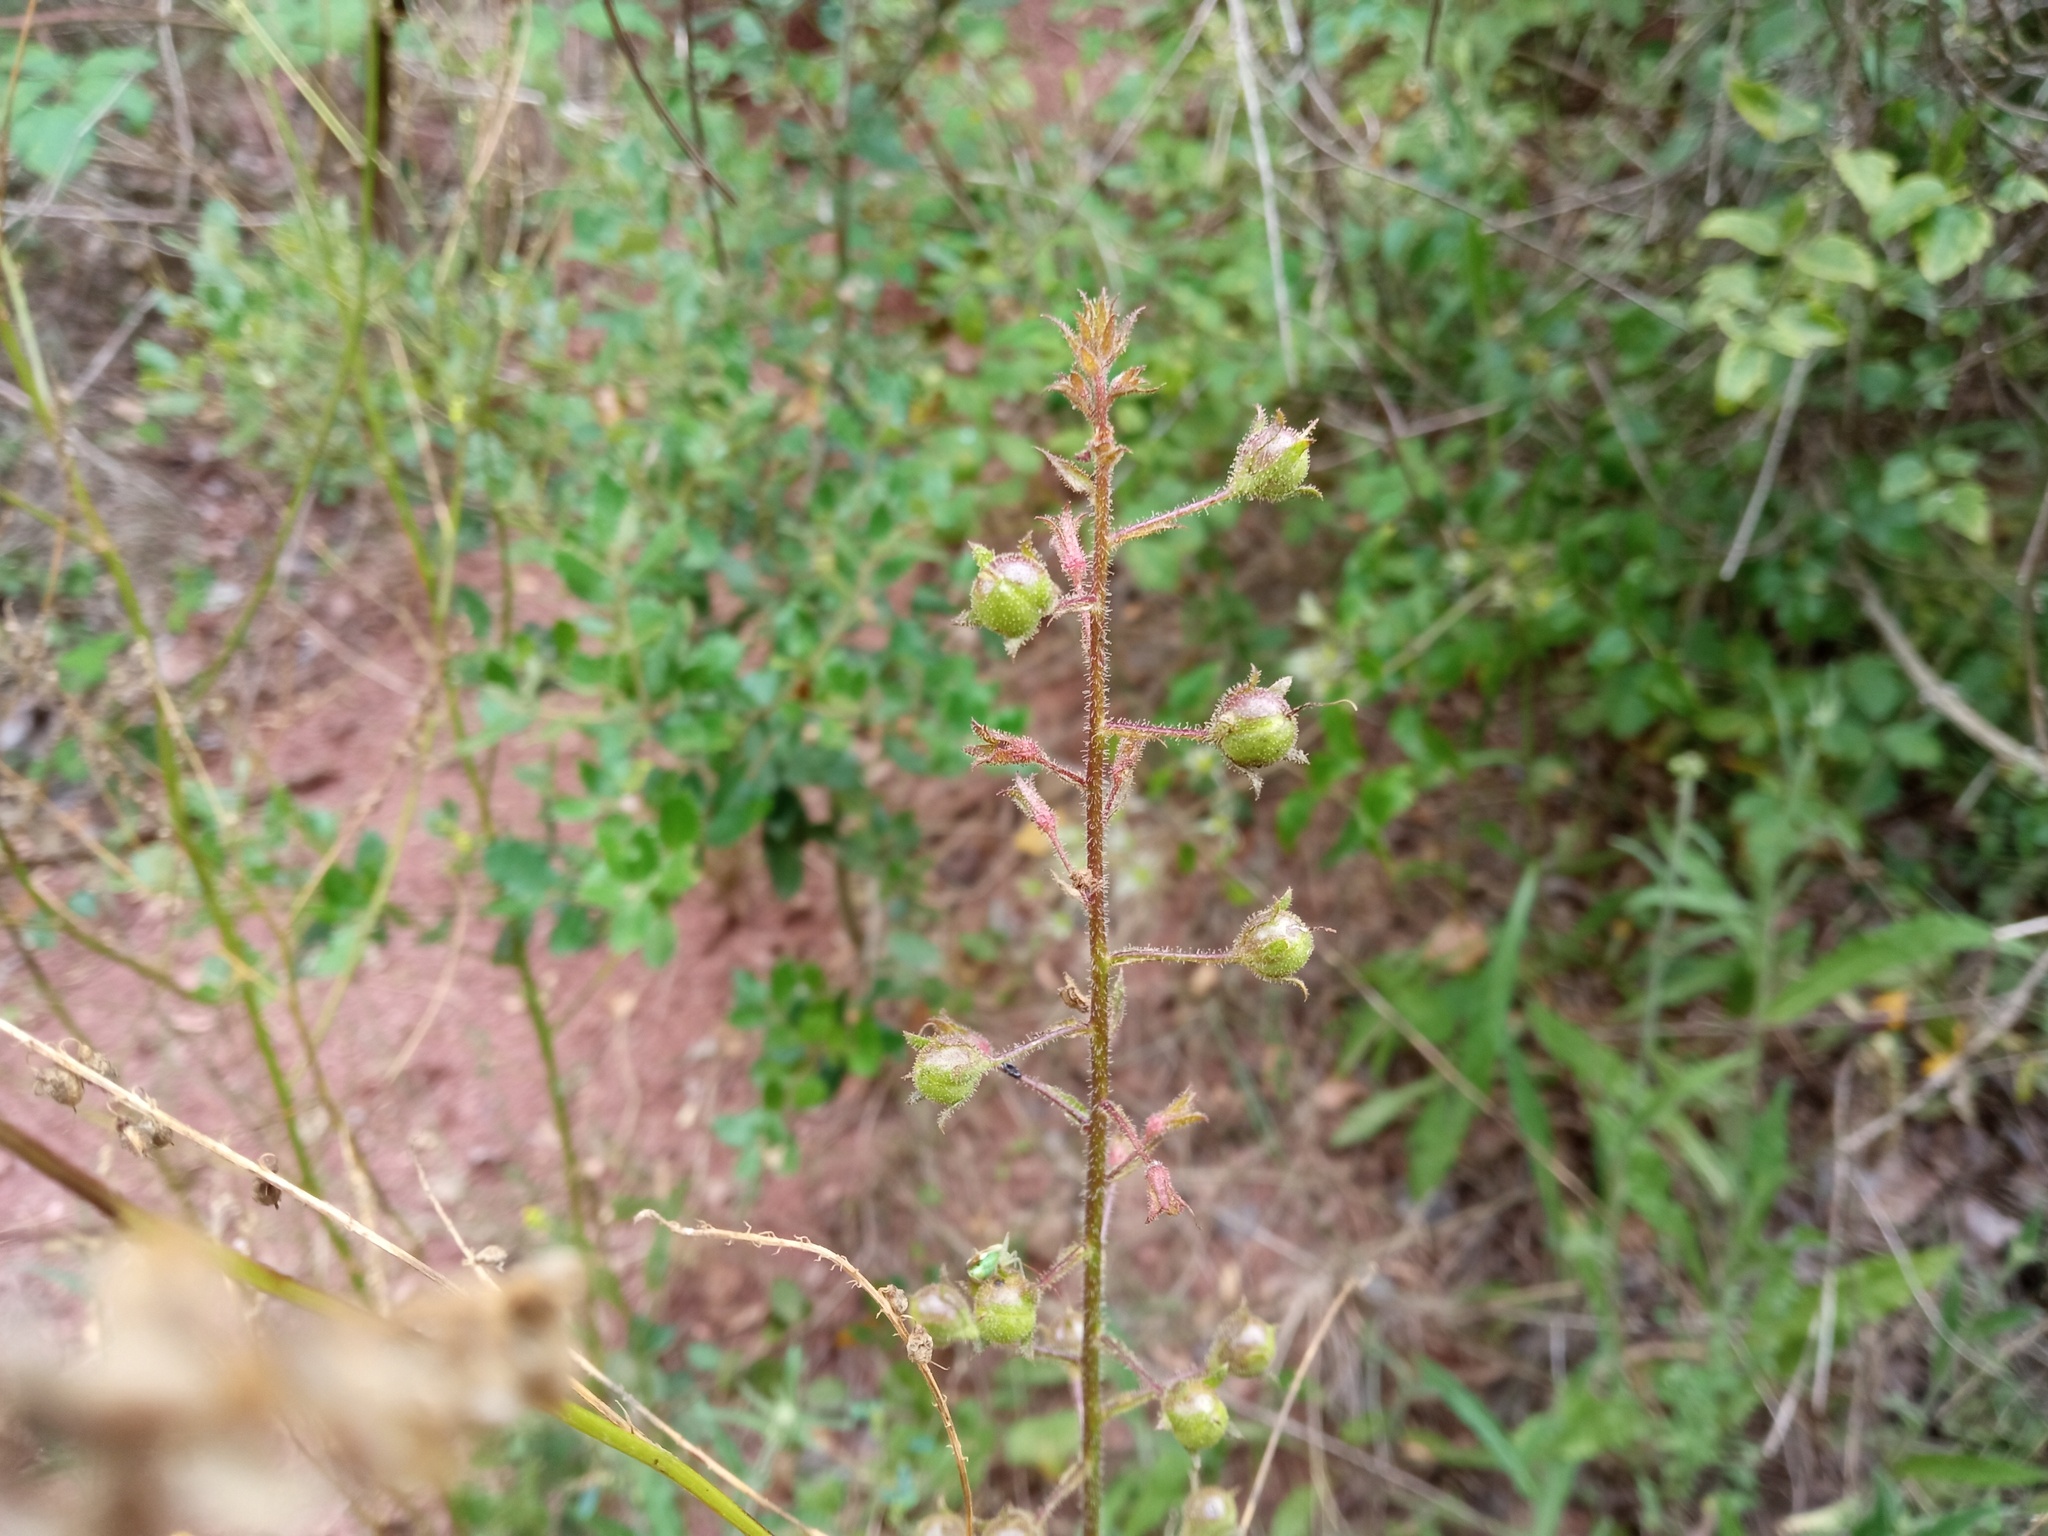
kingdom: Plantae
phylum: Tracheophyta
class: Magnoliopsida
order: Lamiales
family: Scrophulariaceae
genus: Verbascum
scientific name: Verbascum blattaria
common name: Moth mullein
